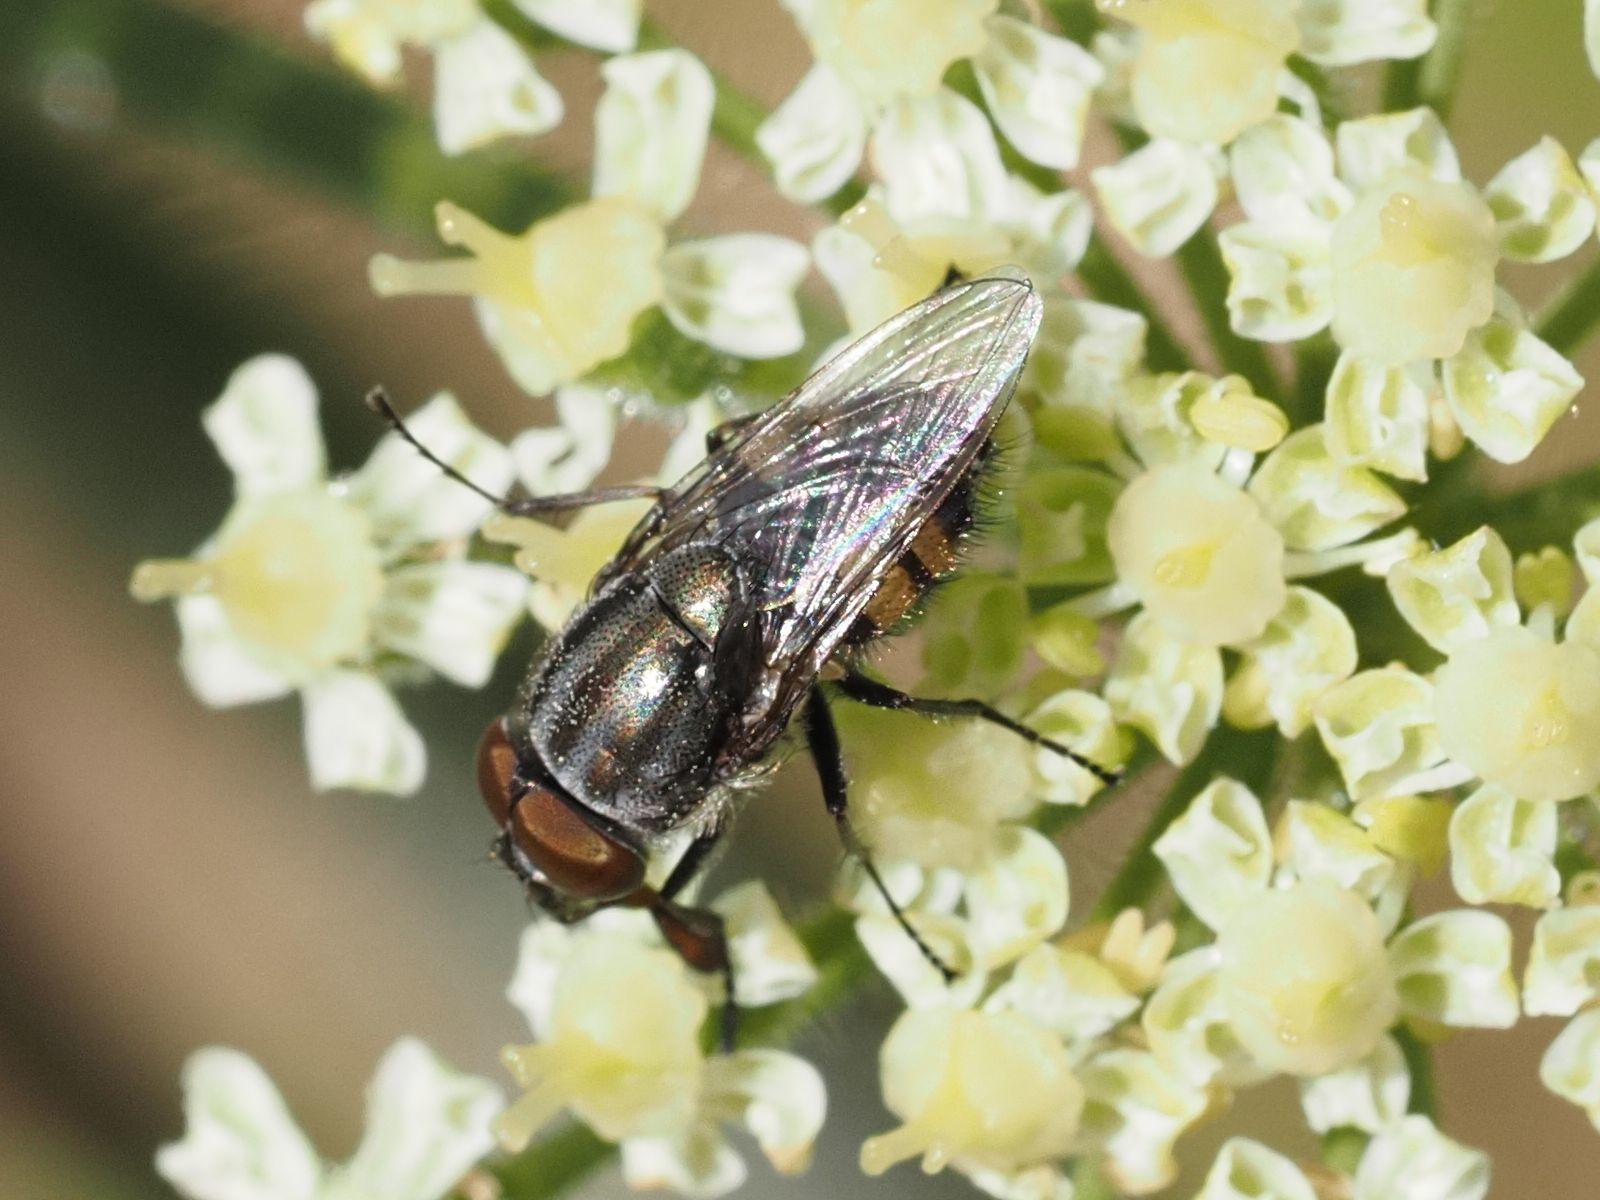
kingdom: Animalia
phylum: Arthropoda
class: Insecta
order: Diptera
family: Calliphoridae
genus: Stomorhina
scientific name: Stomorhina lunata
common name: Locust blowfly
